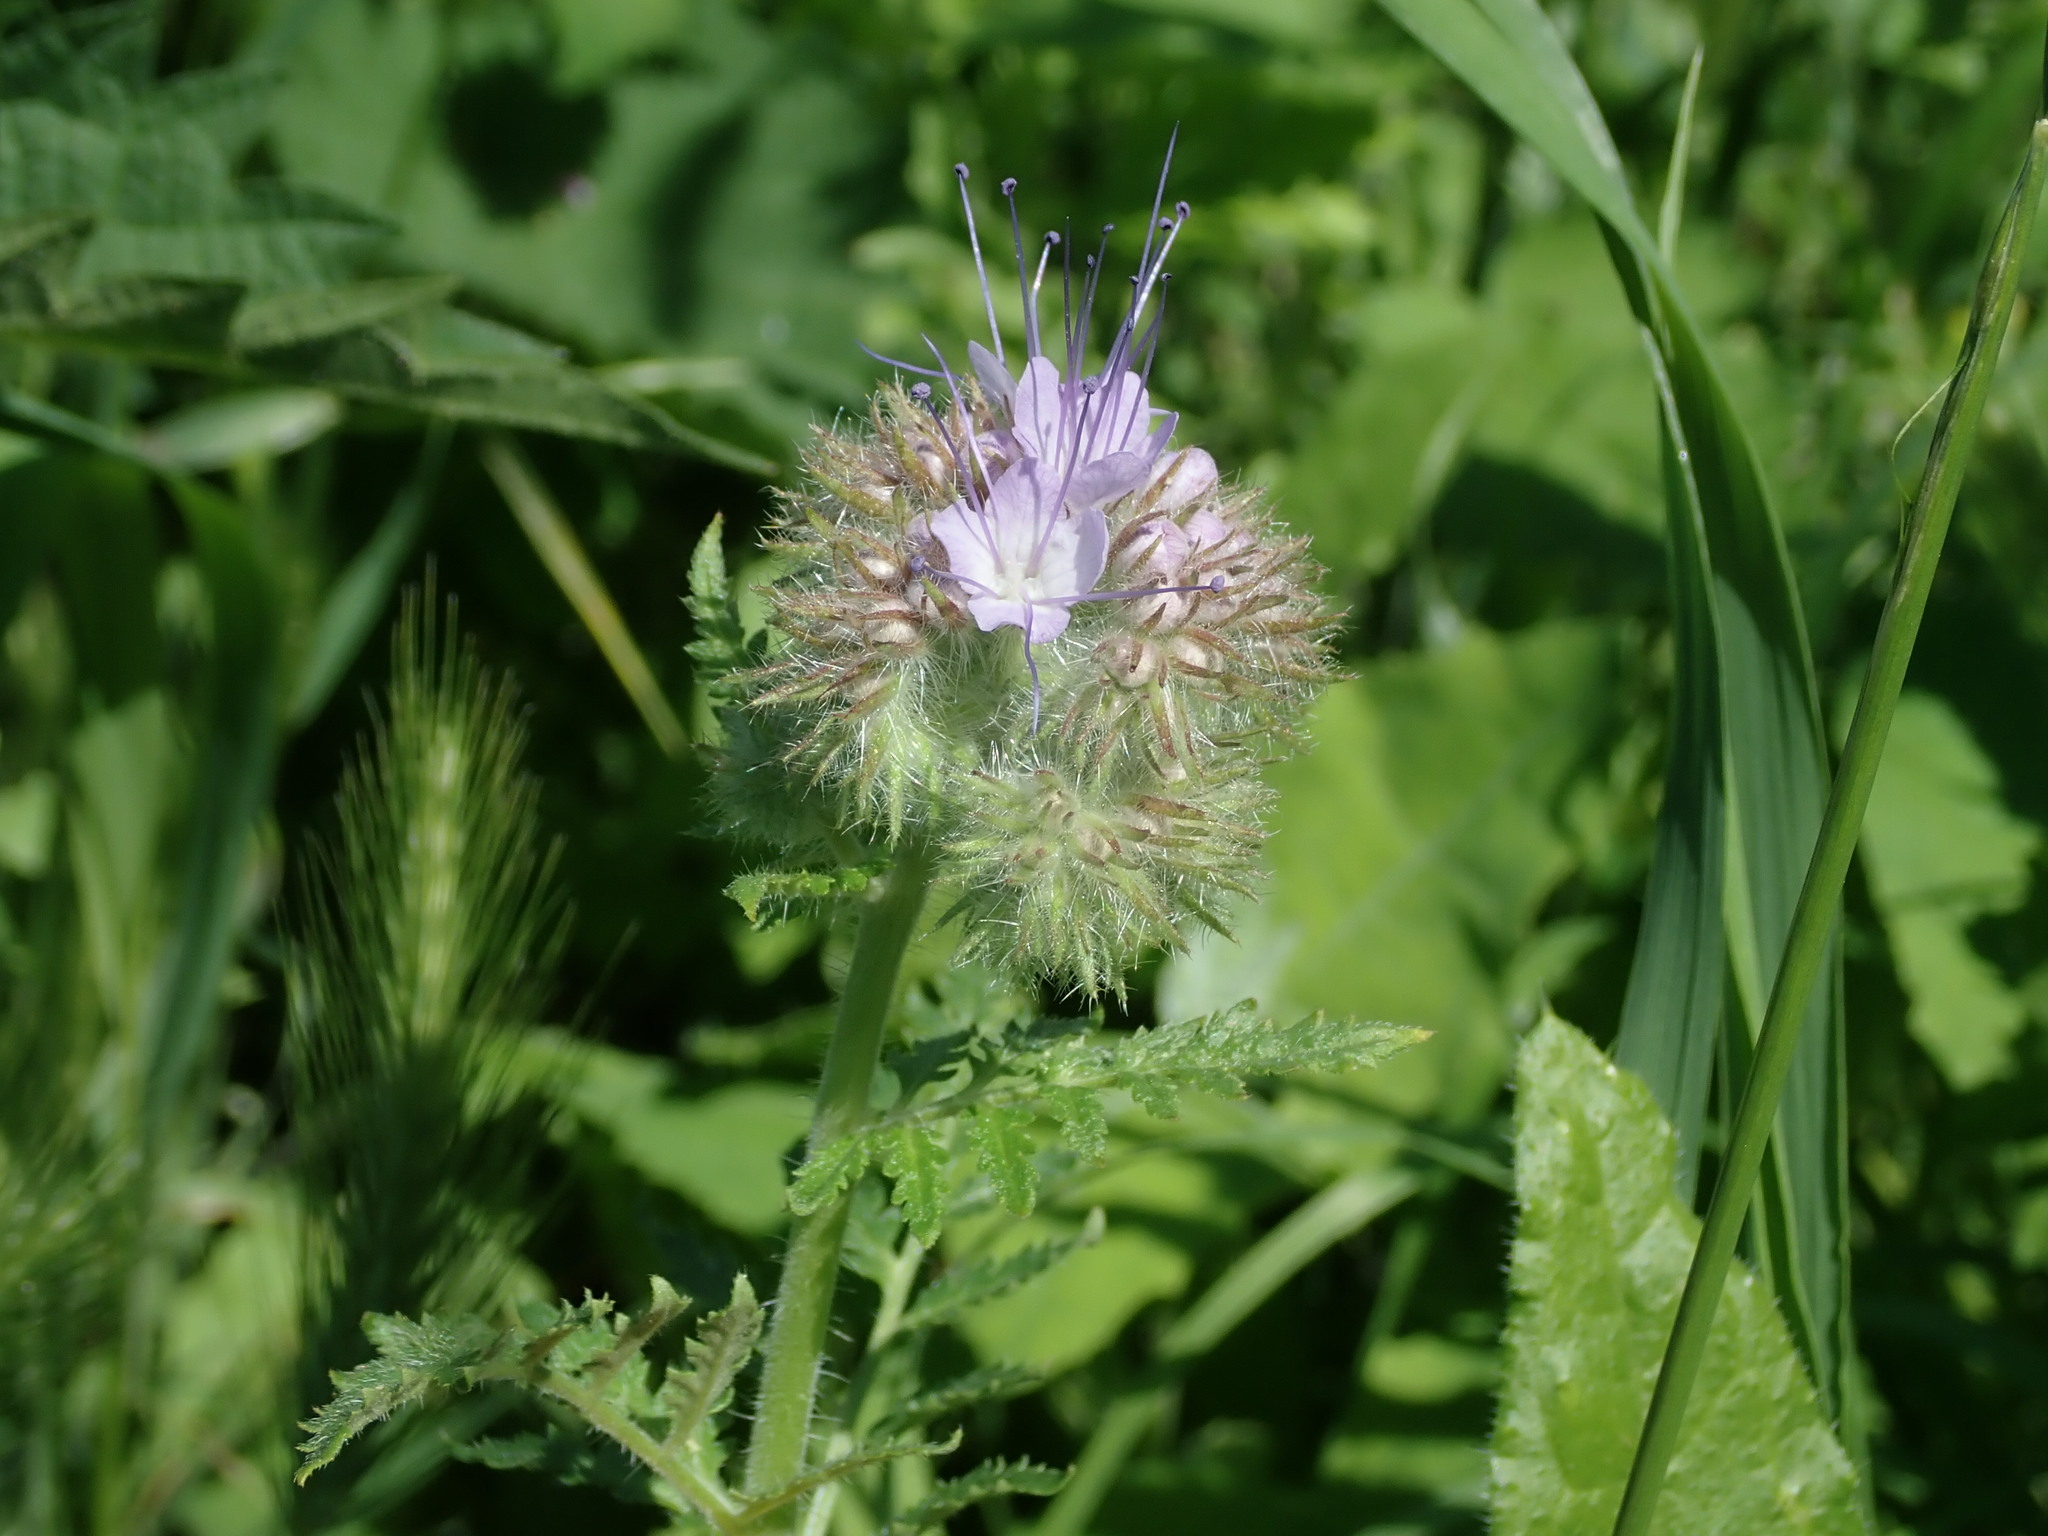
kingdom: Plantae
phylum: Tracheophyta
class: Magnoliopsida
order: Boraginales
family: Hydrophyllaceae
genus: Phacelia
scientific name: Phacelia tanacetifolia
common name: Phacelia
